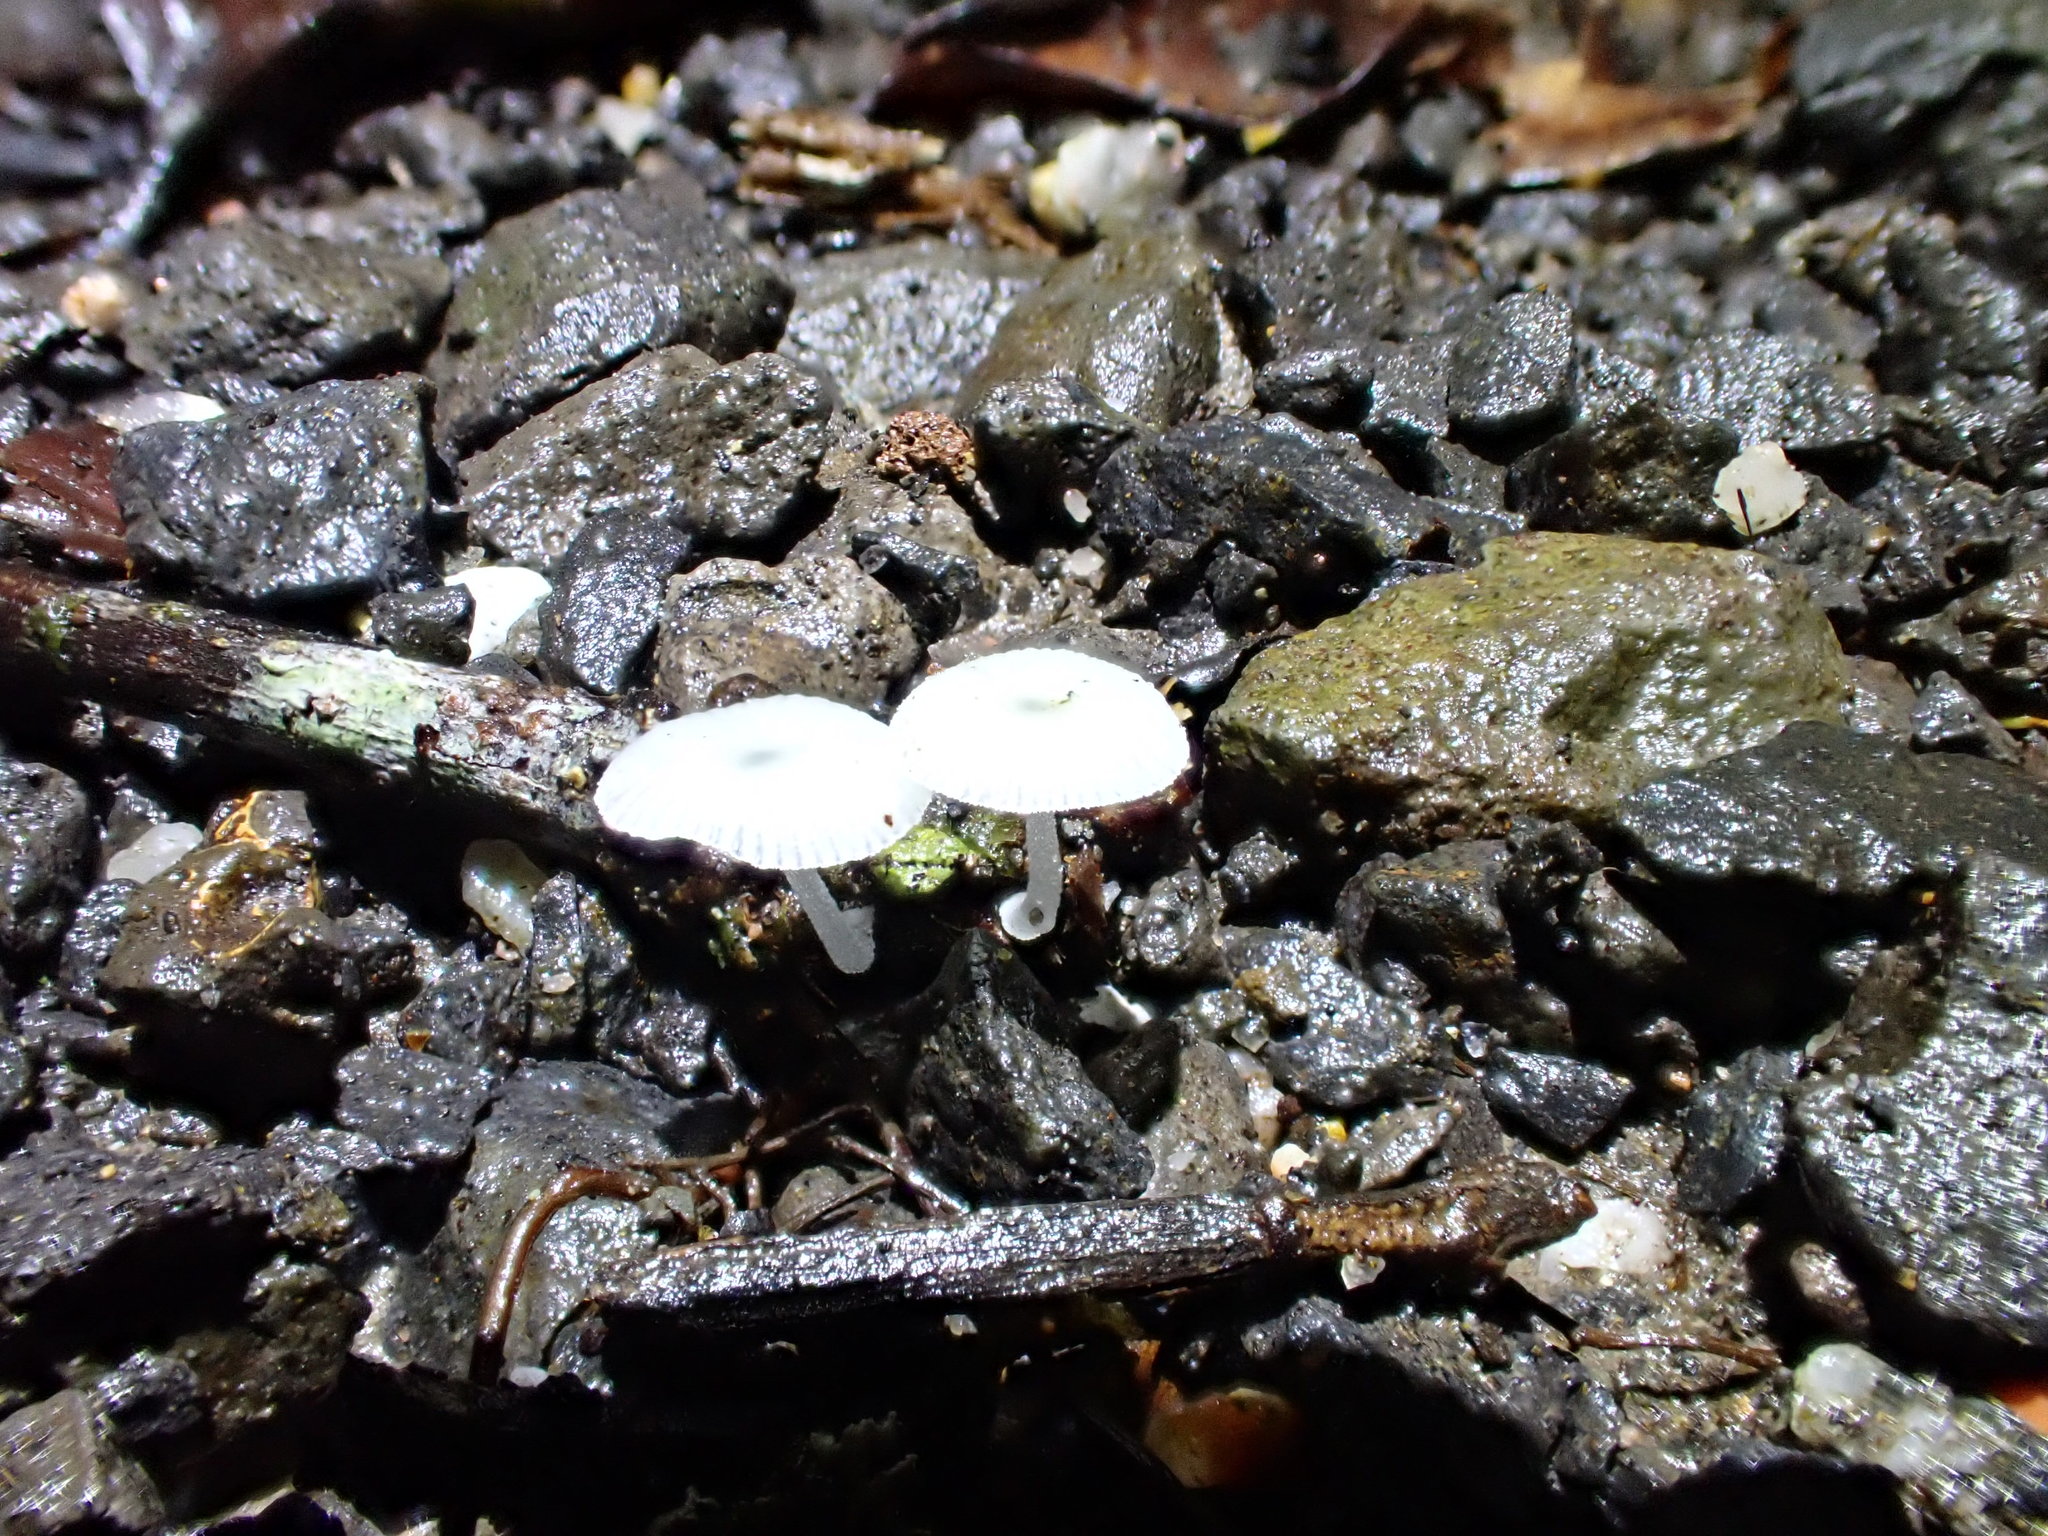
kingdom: Fungi
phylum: Basidiomycota
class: Agaricomycetes
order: Agaricales
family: Mycenaceae
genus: Mycena
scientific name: Mycena chlorophos
